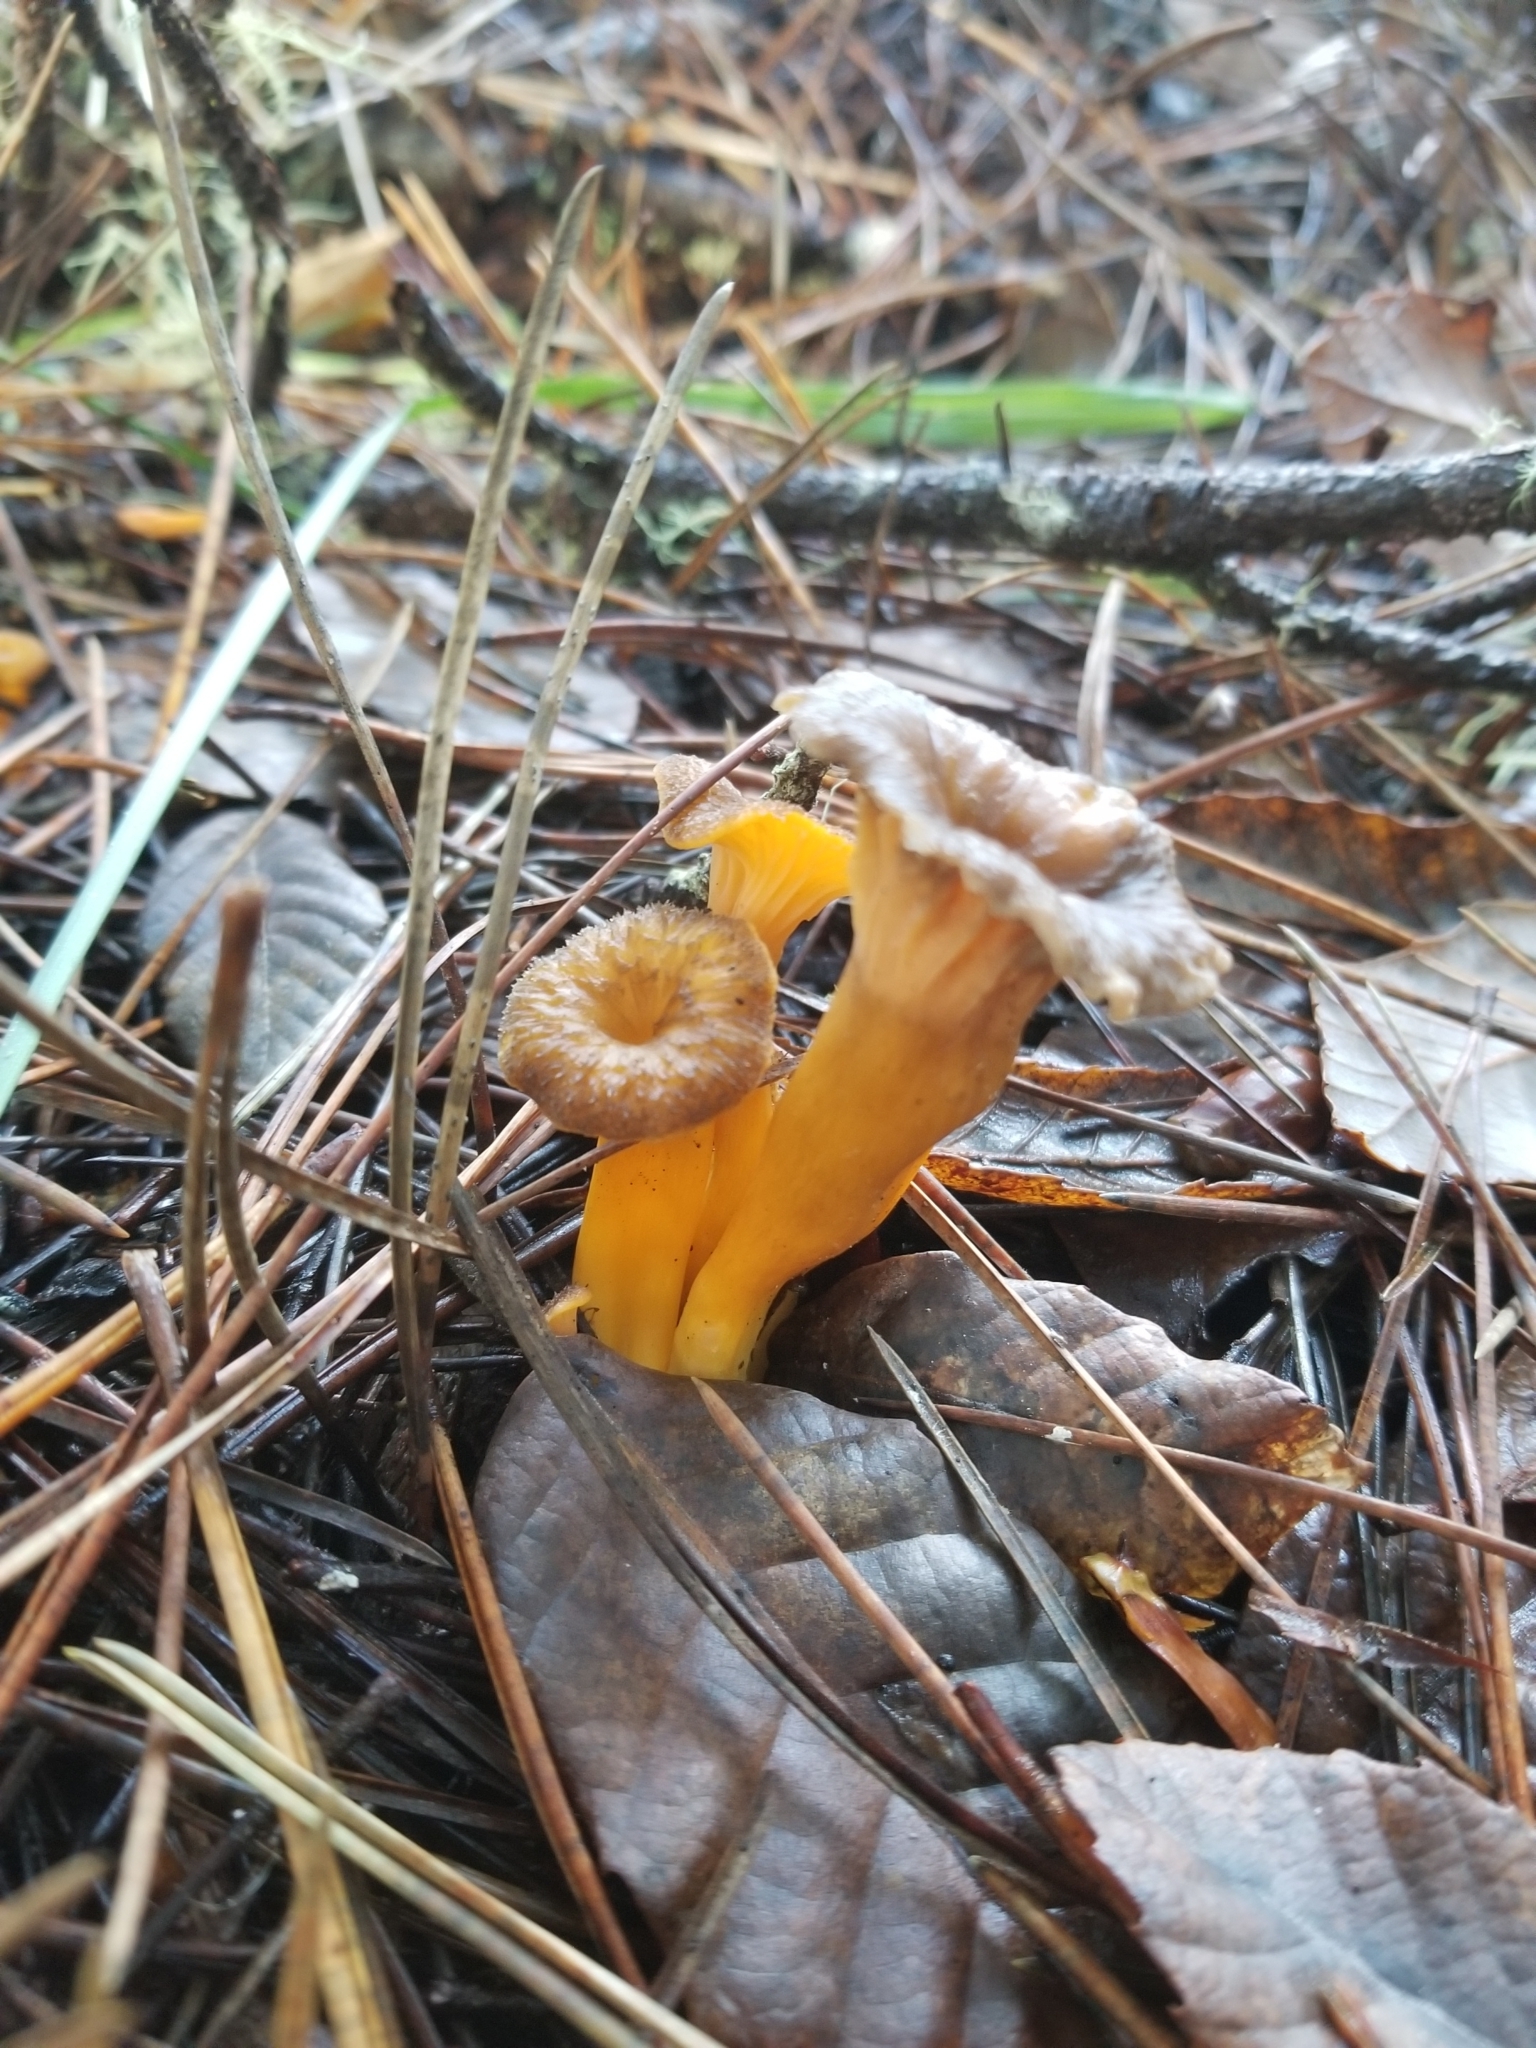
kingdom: Fungi
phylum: Basidiomycota
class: Agaricomycetes
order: Cantharellales
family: Hydnaceae
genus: Craterellus
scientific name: Craterellus tubaeformis
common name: Yellowfoot
